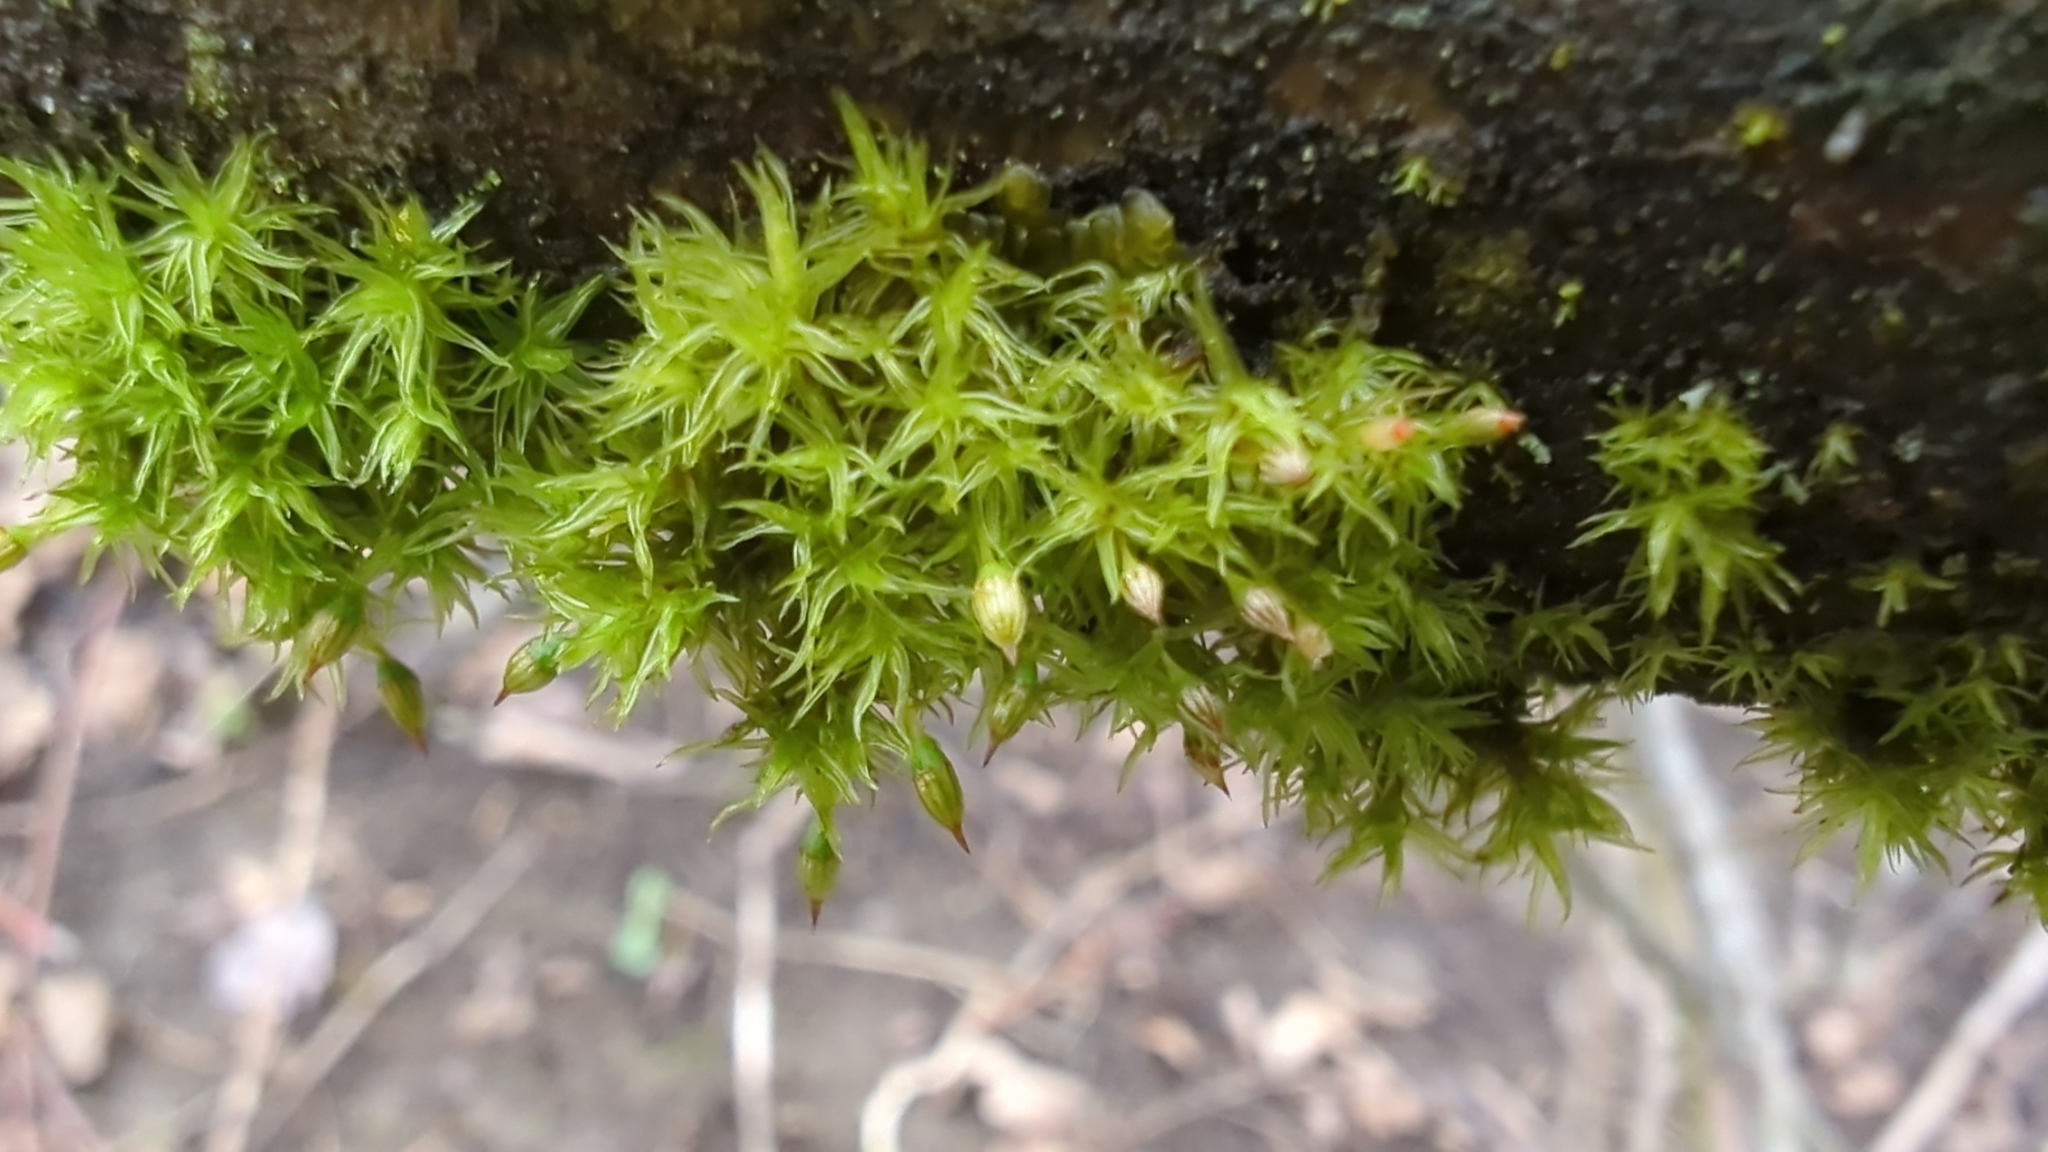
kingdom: Plantae
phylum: Bryophyta
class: Bryopsida
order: Orthotrichales
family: Orthotrichaceae
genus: Orthotrichum
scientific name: Orthotrichum pulchellum
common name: Elegant bristle-moss
